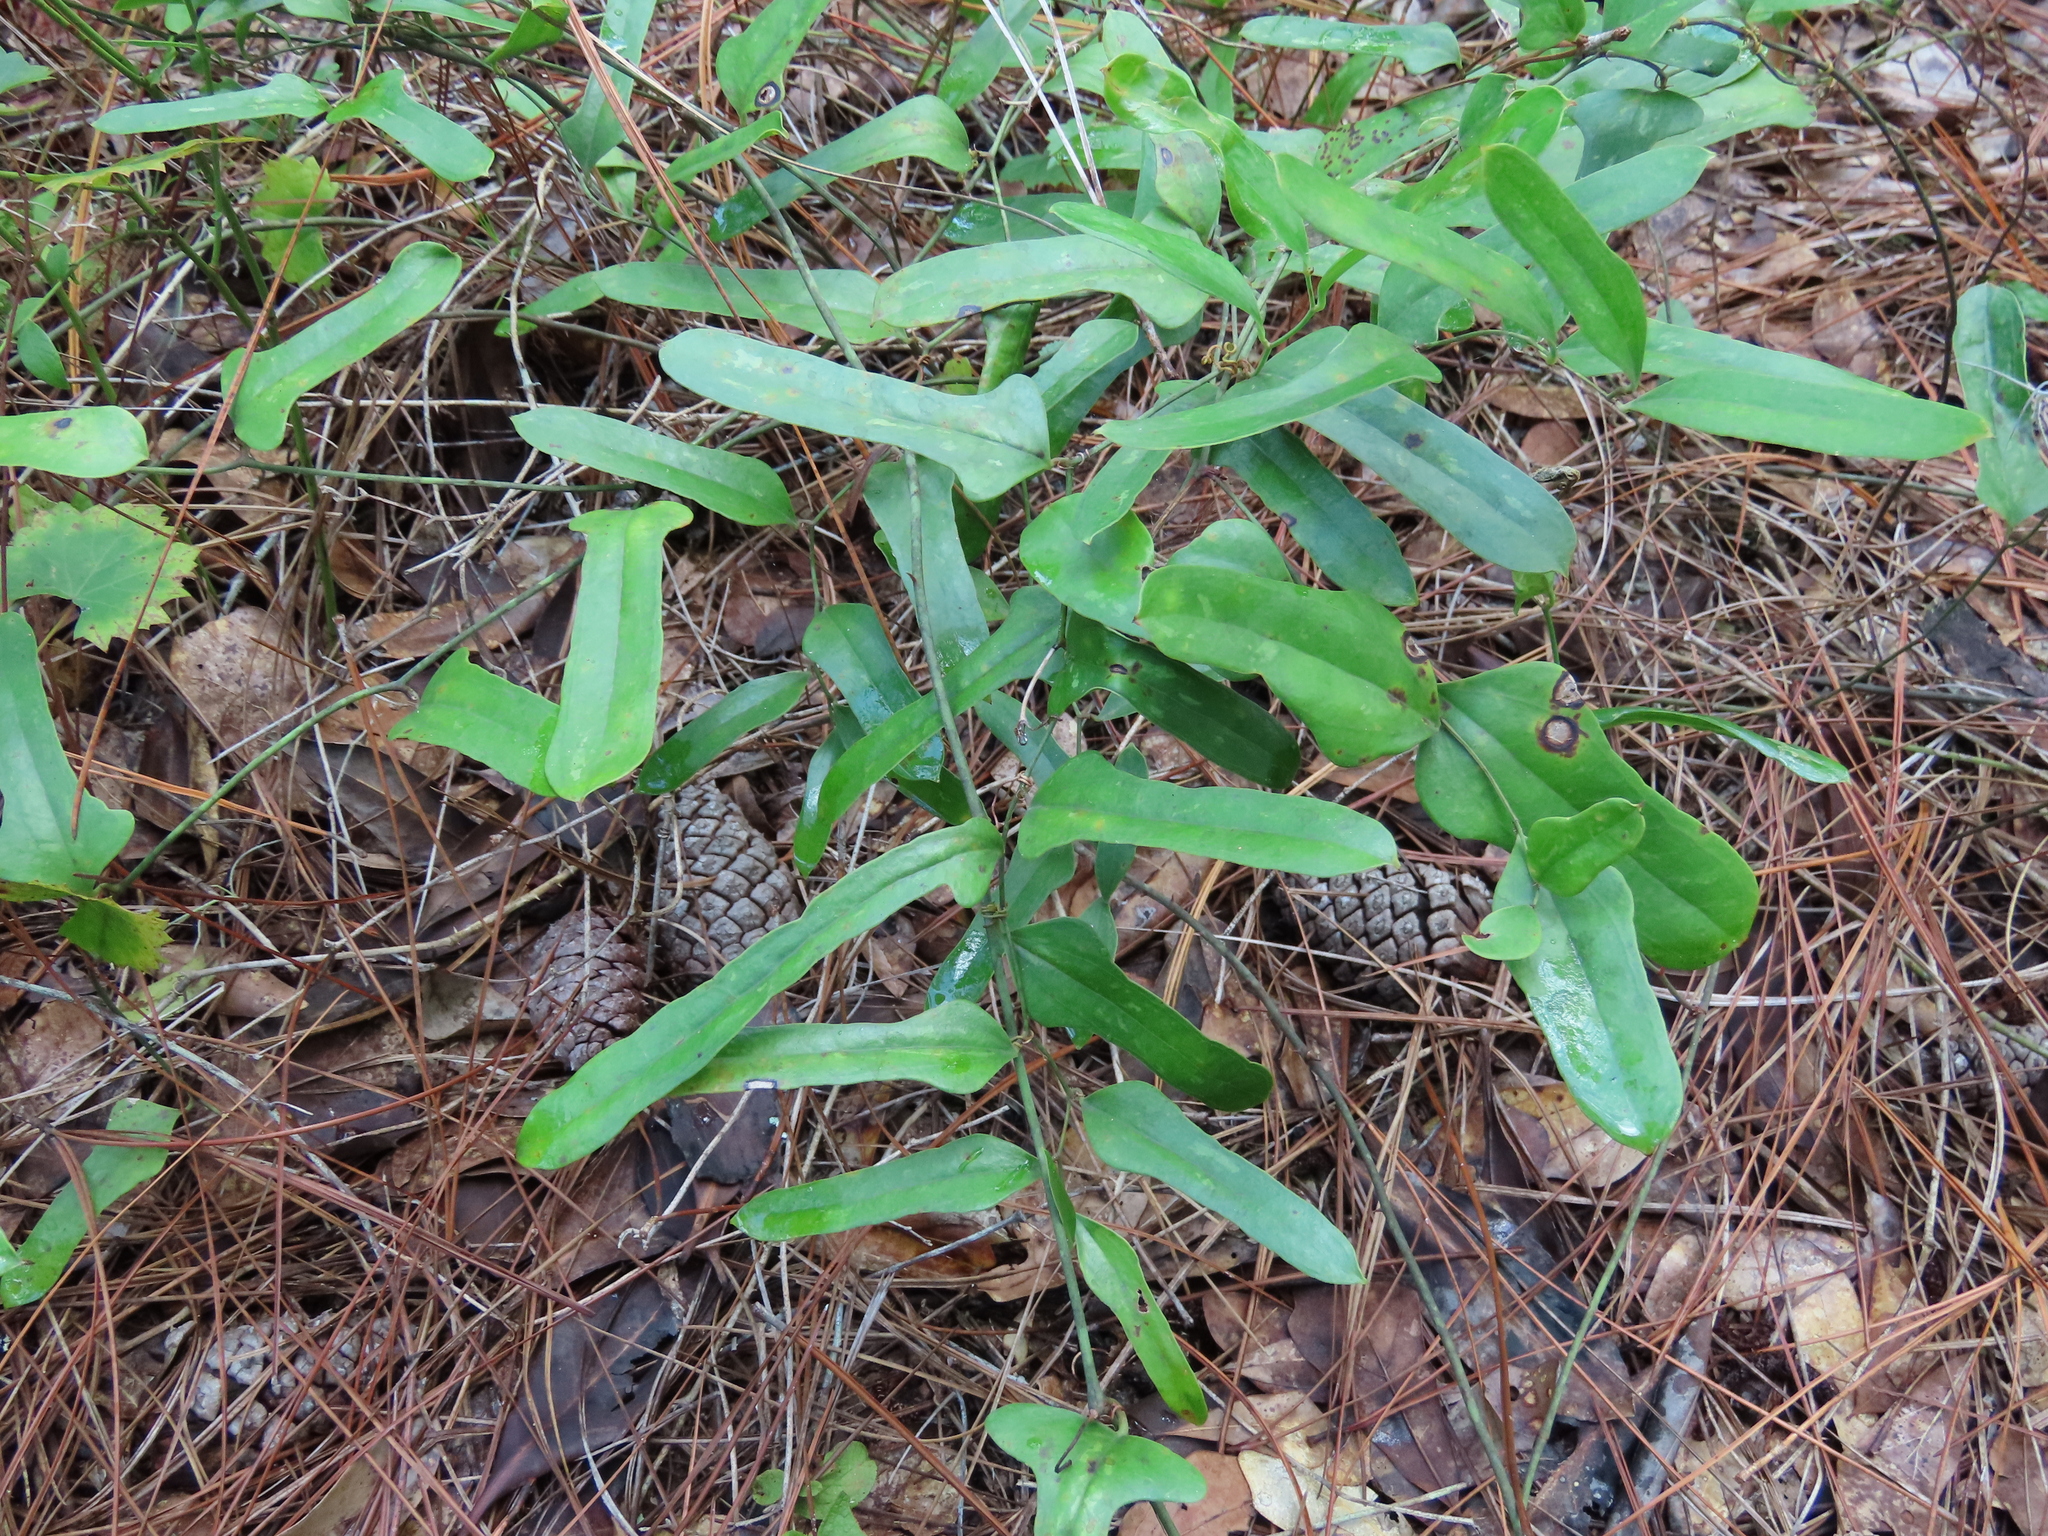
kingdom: Plantae
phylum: Tracheophyta
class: Liliopsida
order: Liliales
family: Smilacaceae
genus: Smilax
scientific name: Smilax auriculata
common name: Wild bamboo
